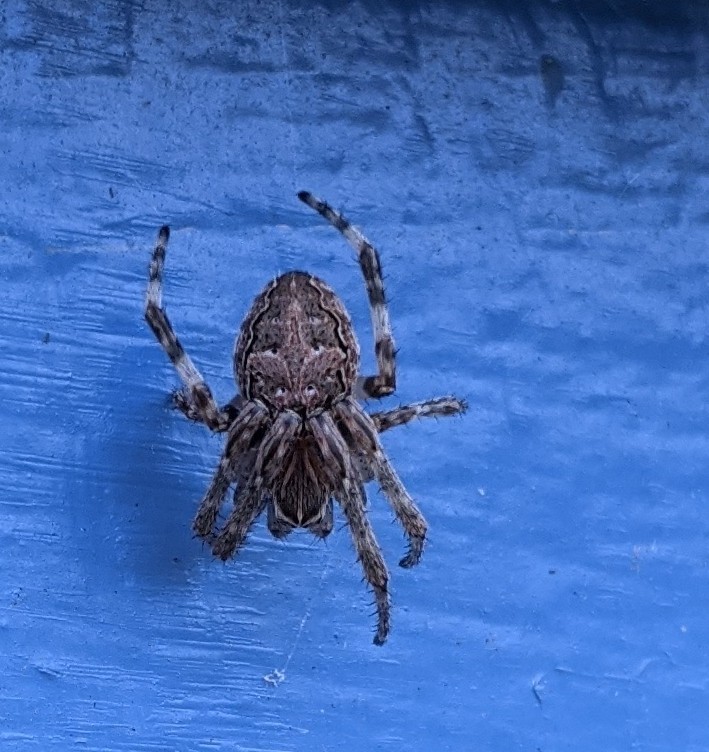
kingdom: Animalia
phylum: Arthropoda
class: Arachnida
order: Araneae
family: Araneidae
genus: Larinioides
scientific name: Larinioides sclopetarius
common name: Bridge orbweaver
